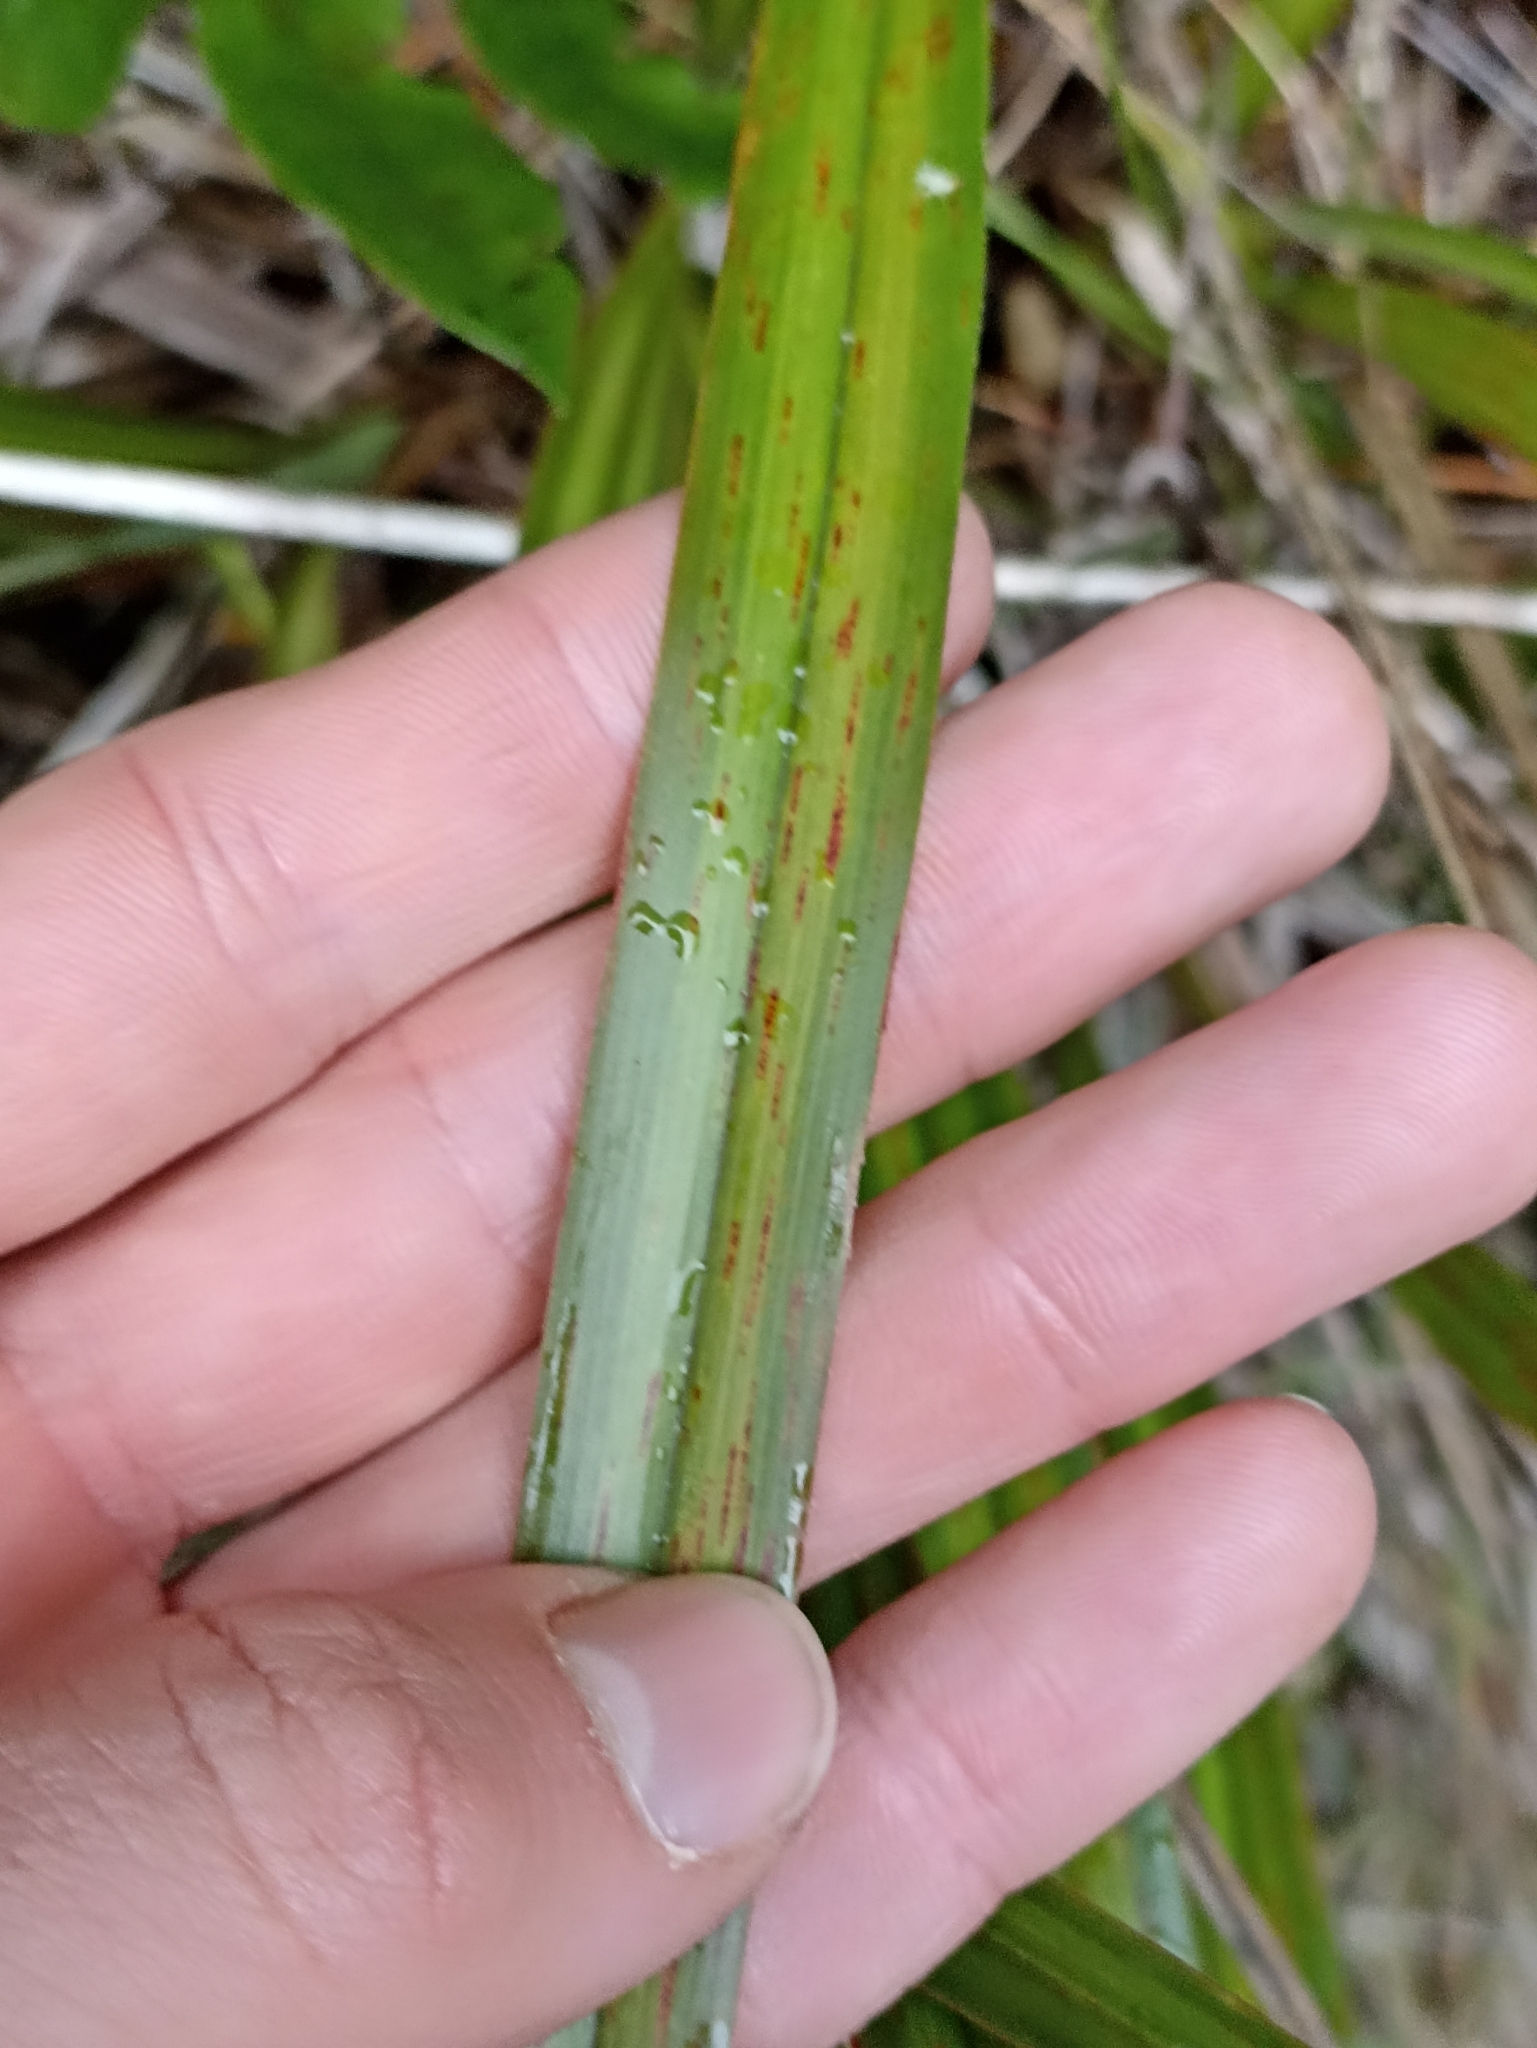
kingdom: Plantae
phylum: Tracheophyta
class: Liliopsida
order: Asparagales
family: Asphodelaceae
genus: Dianella
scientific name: Dianella nigra
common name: New zealand-blueberry
